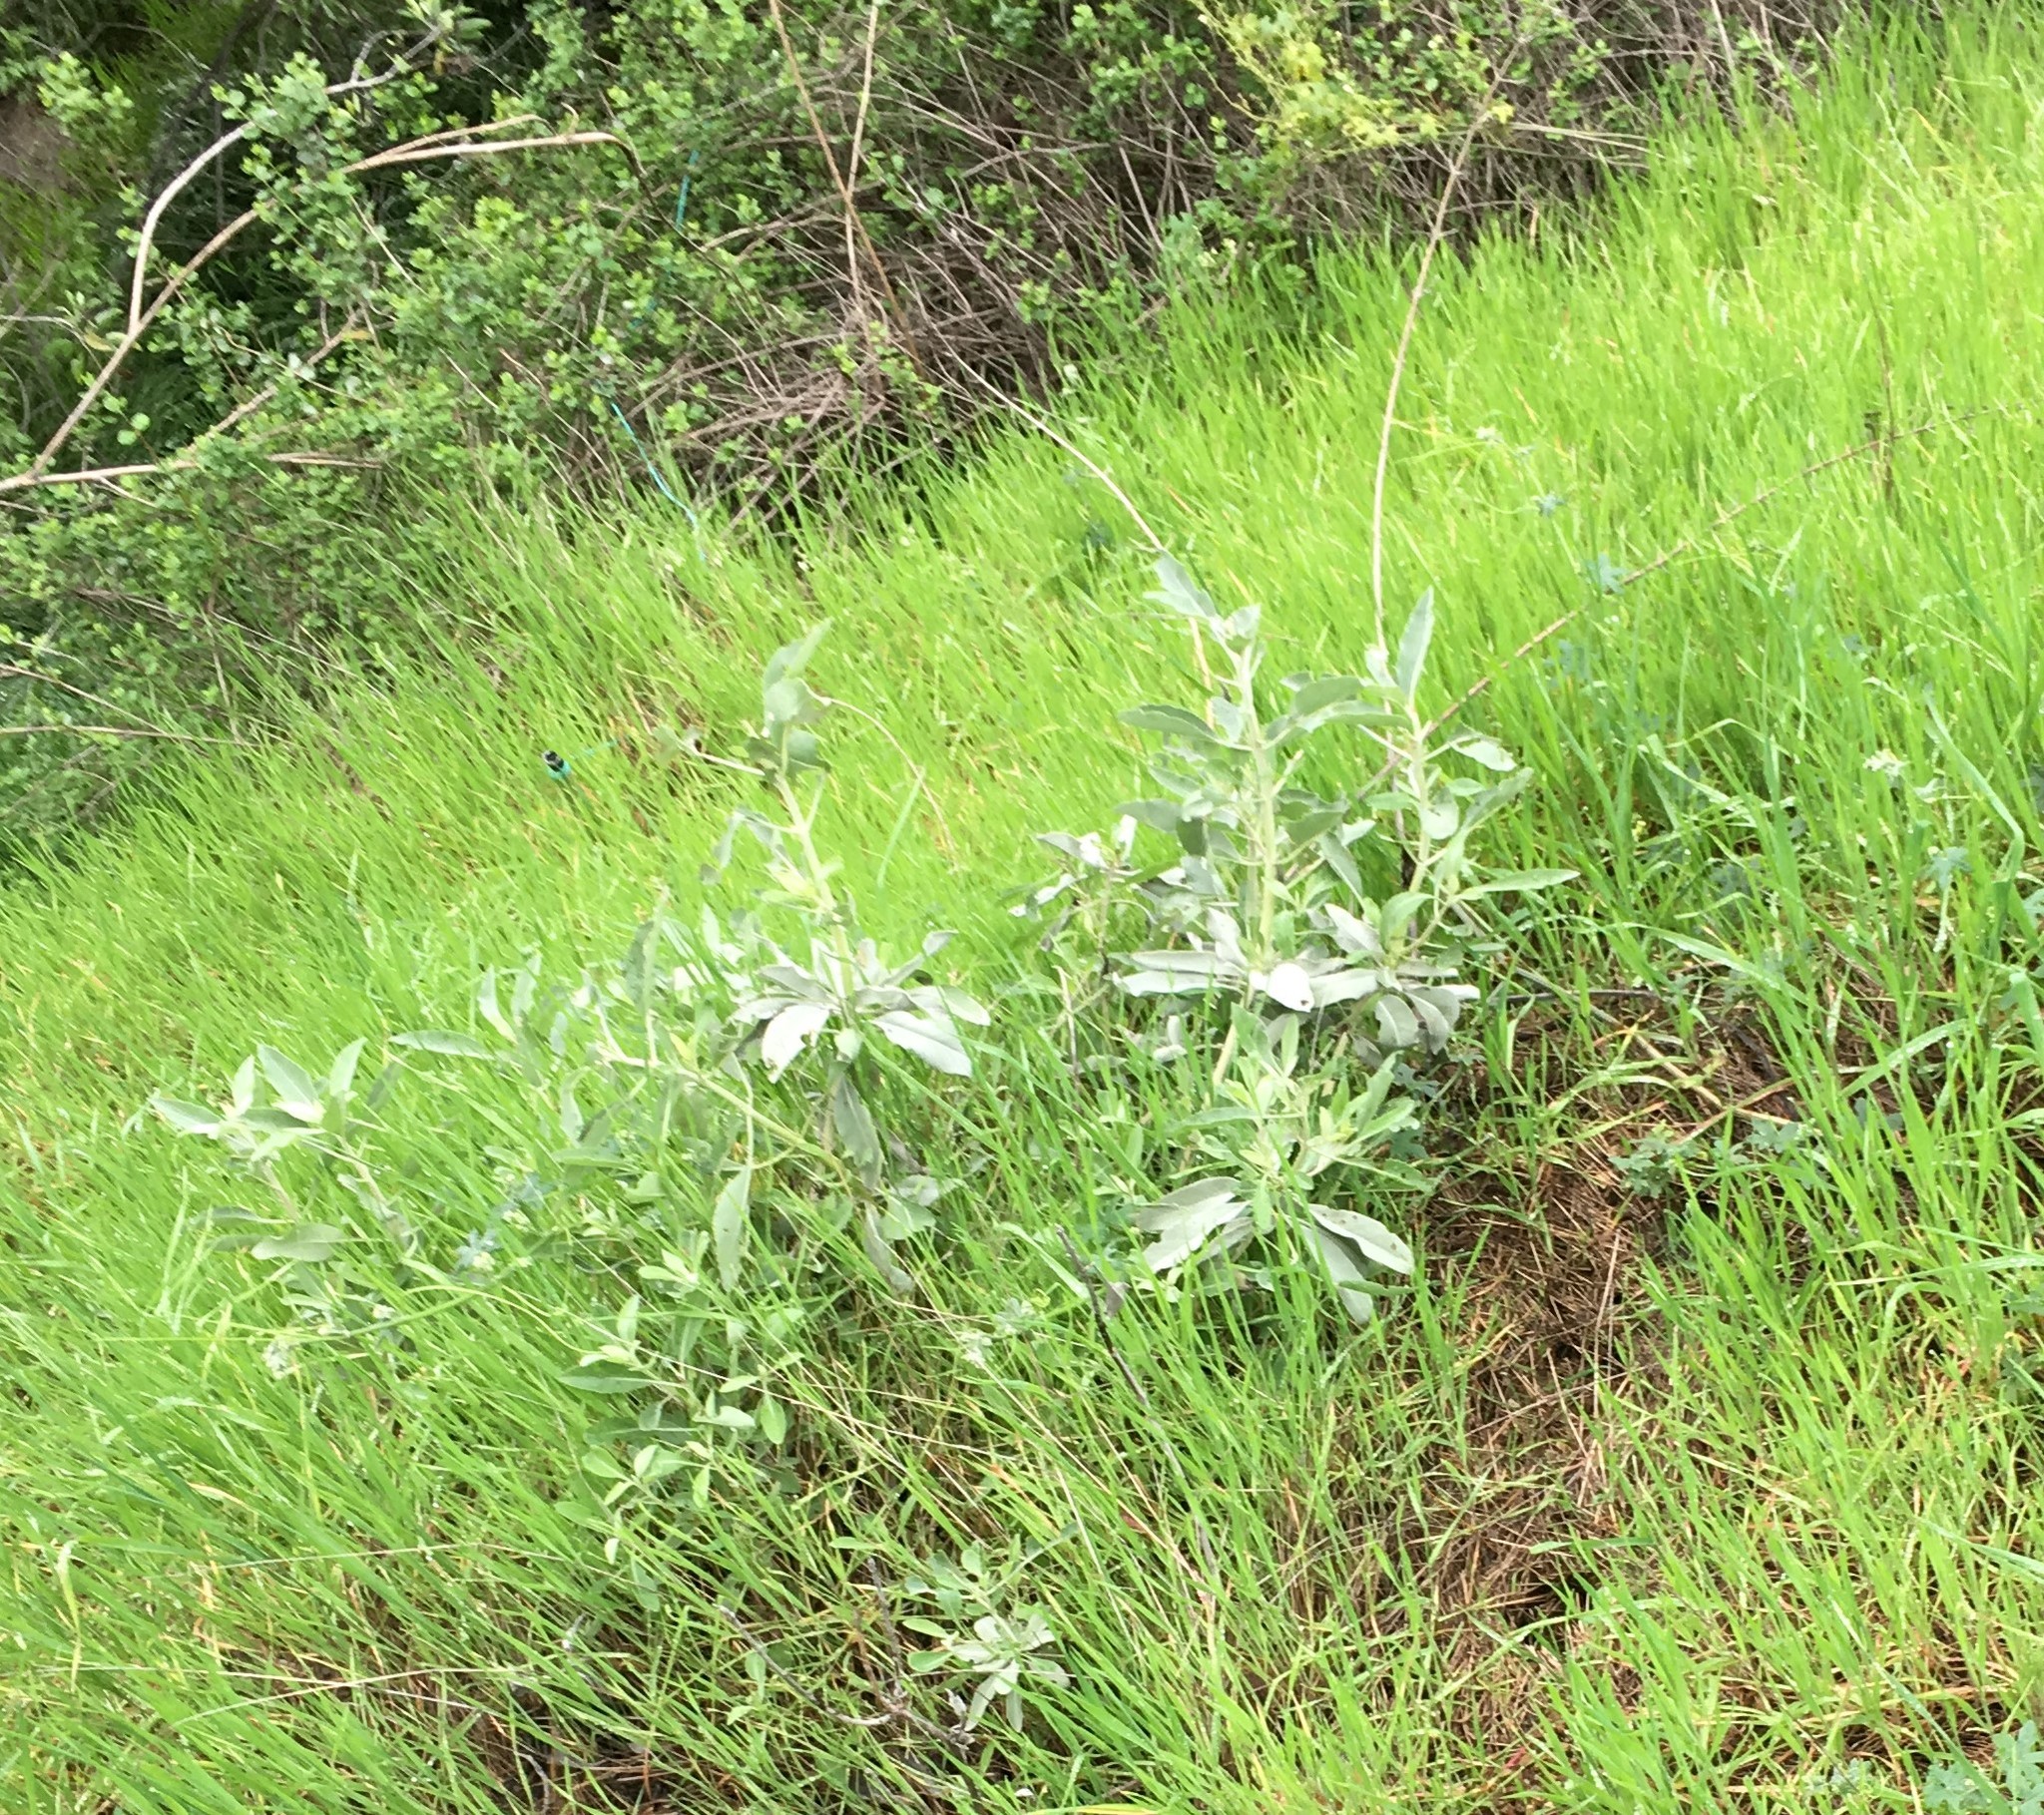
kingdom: Plantae
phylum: Tracheophyta
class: Magnoliopsida
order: Lamiales
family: Lamiaceae
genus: Salvia
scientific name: Salvia apiana
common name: White sage
